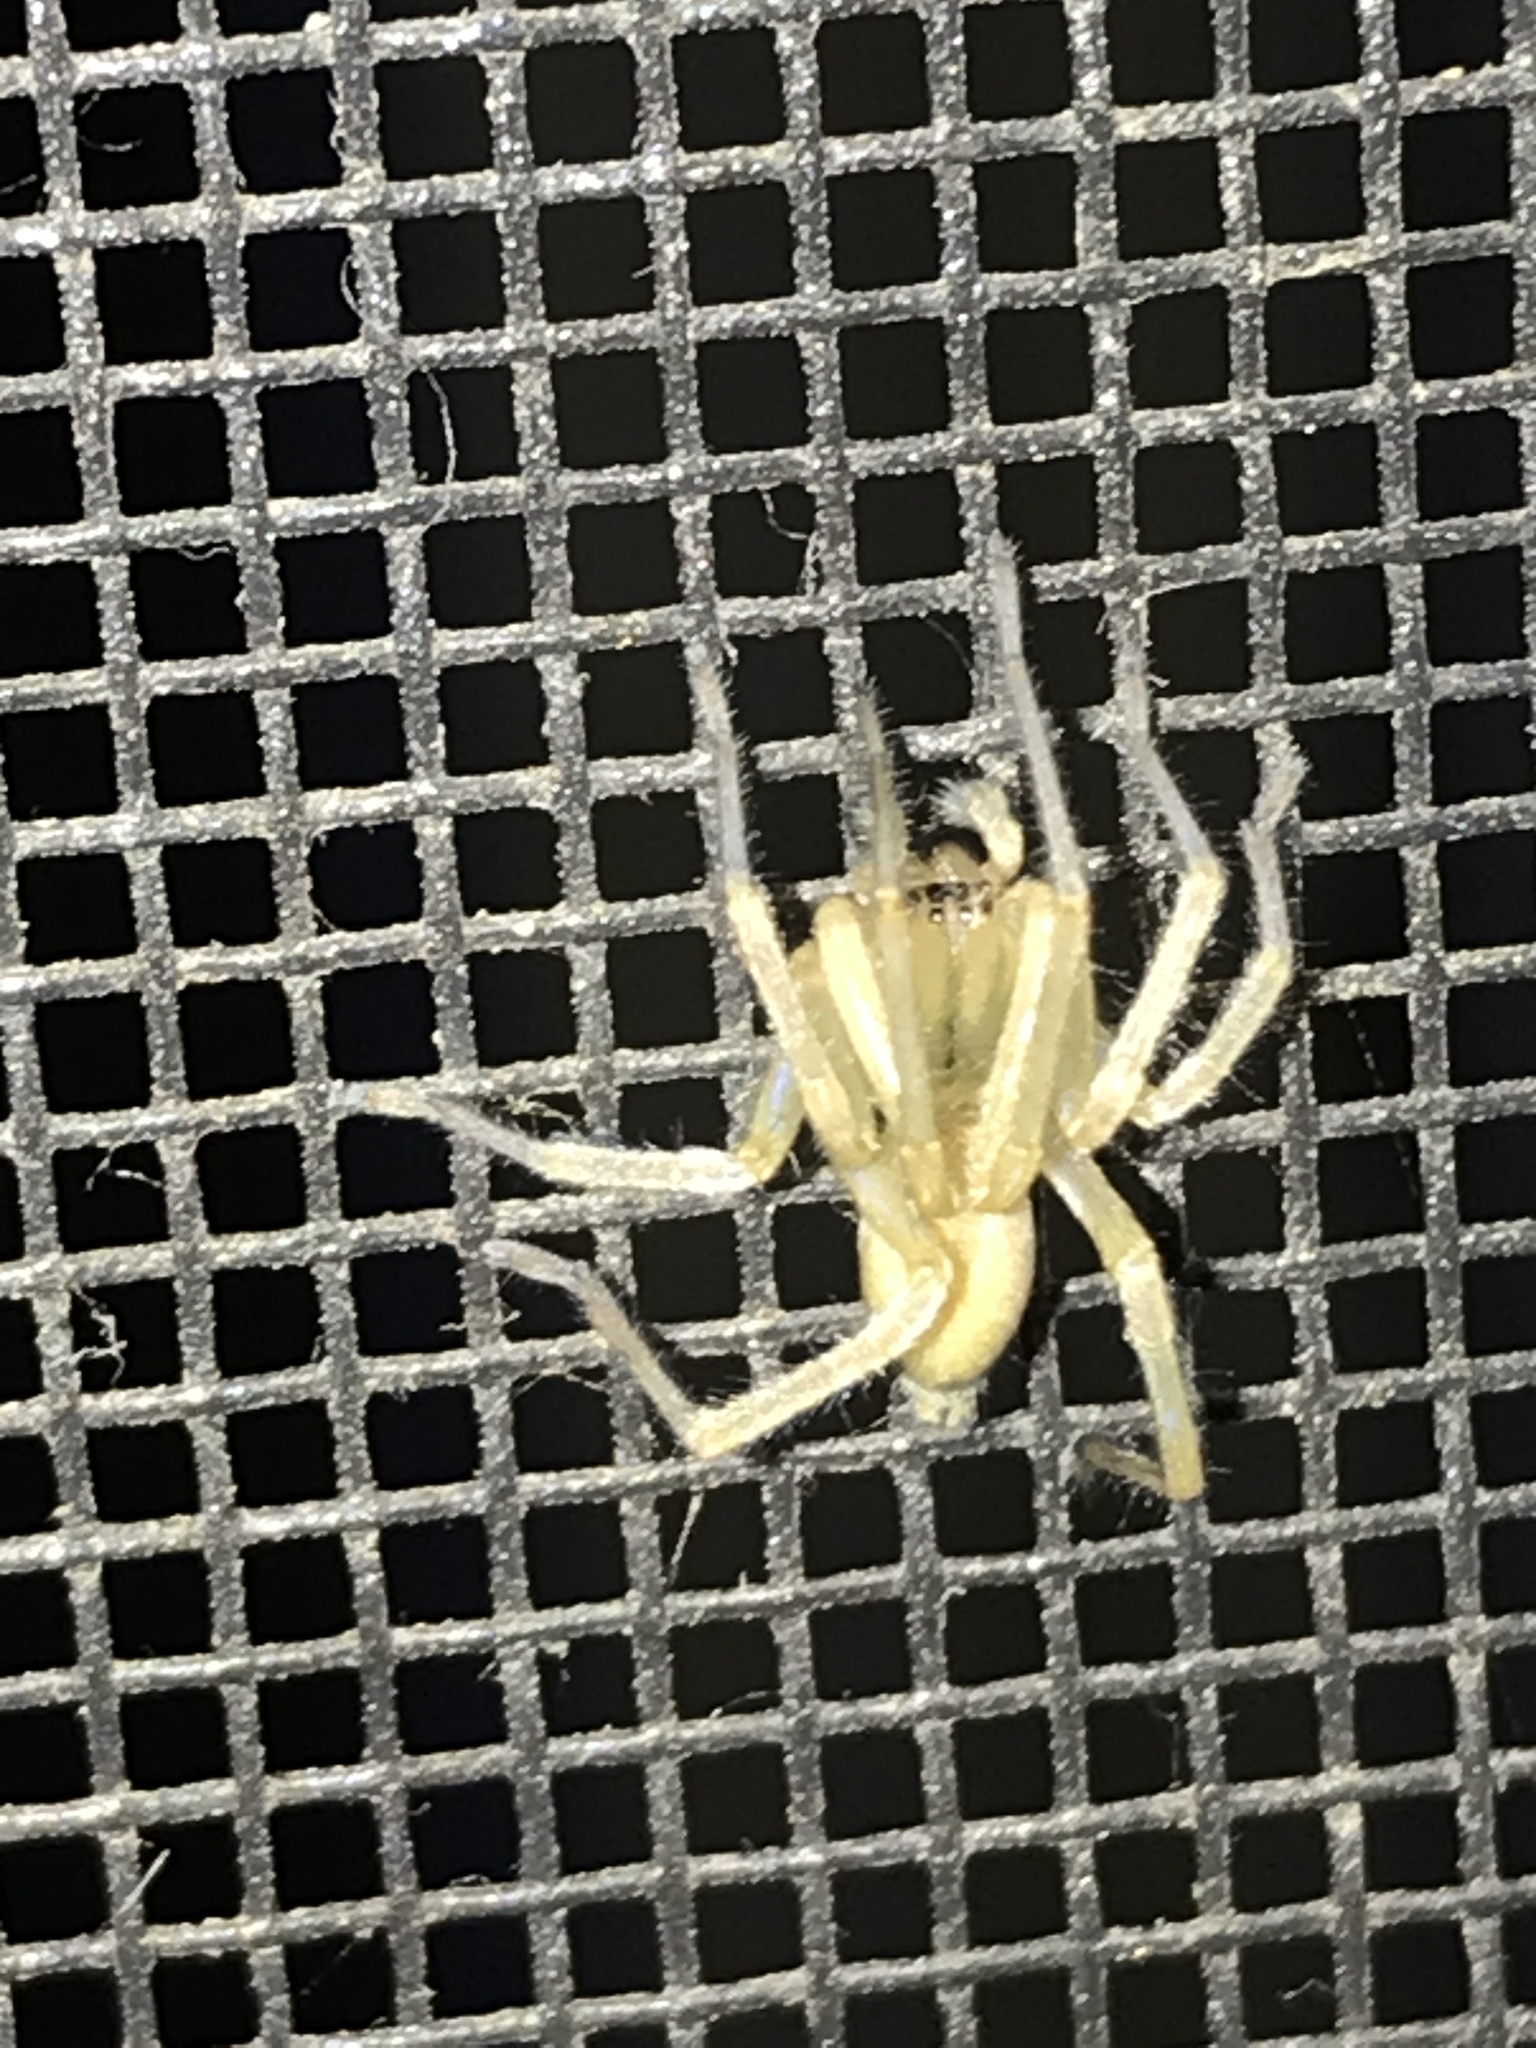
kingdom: Animalia
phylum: Arthropoda
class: Arachnida
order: Araneae
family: Cheiracanthiidae
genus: Cheiracanthium
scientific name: Cheiracanthium mildei
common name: Northern yellow sac spider
